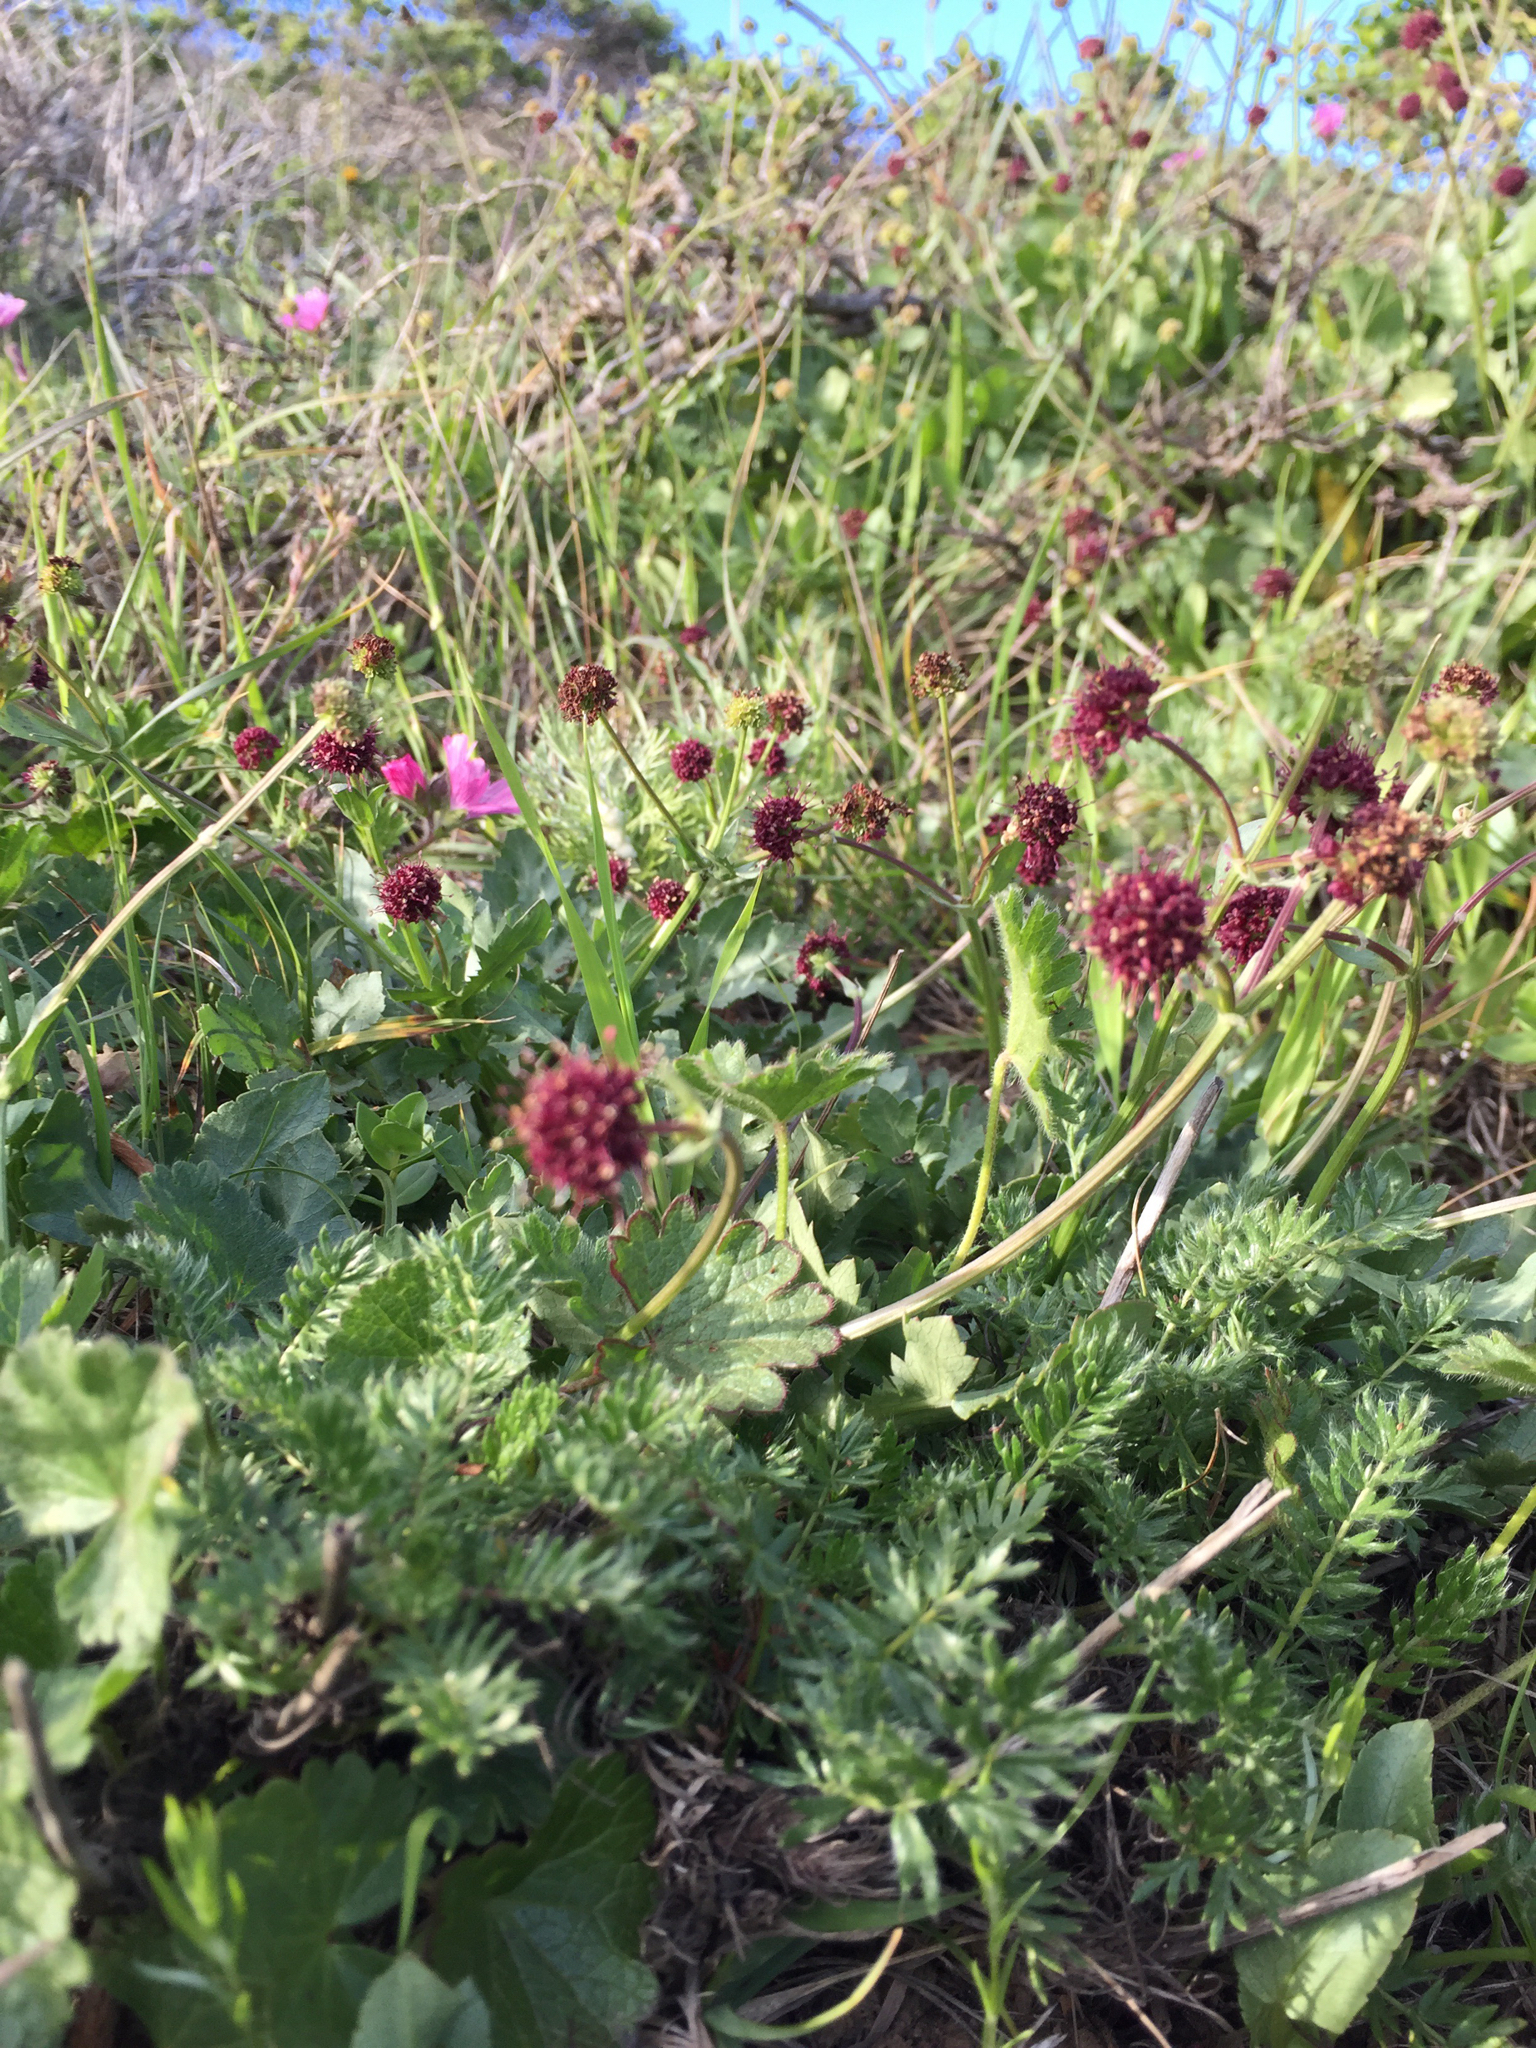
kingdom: Plantae
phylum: Tracheophyta
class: Magnoliopsida
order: Apiales
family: Apiaceae
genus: Sanicula
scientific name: Sanicula bipinnatifida
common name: Shoe-buttons
